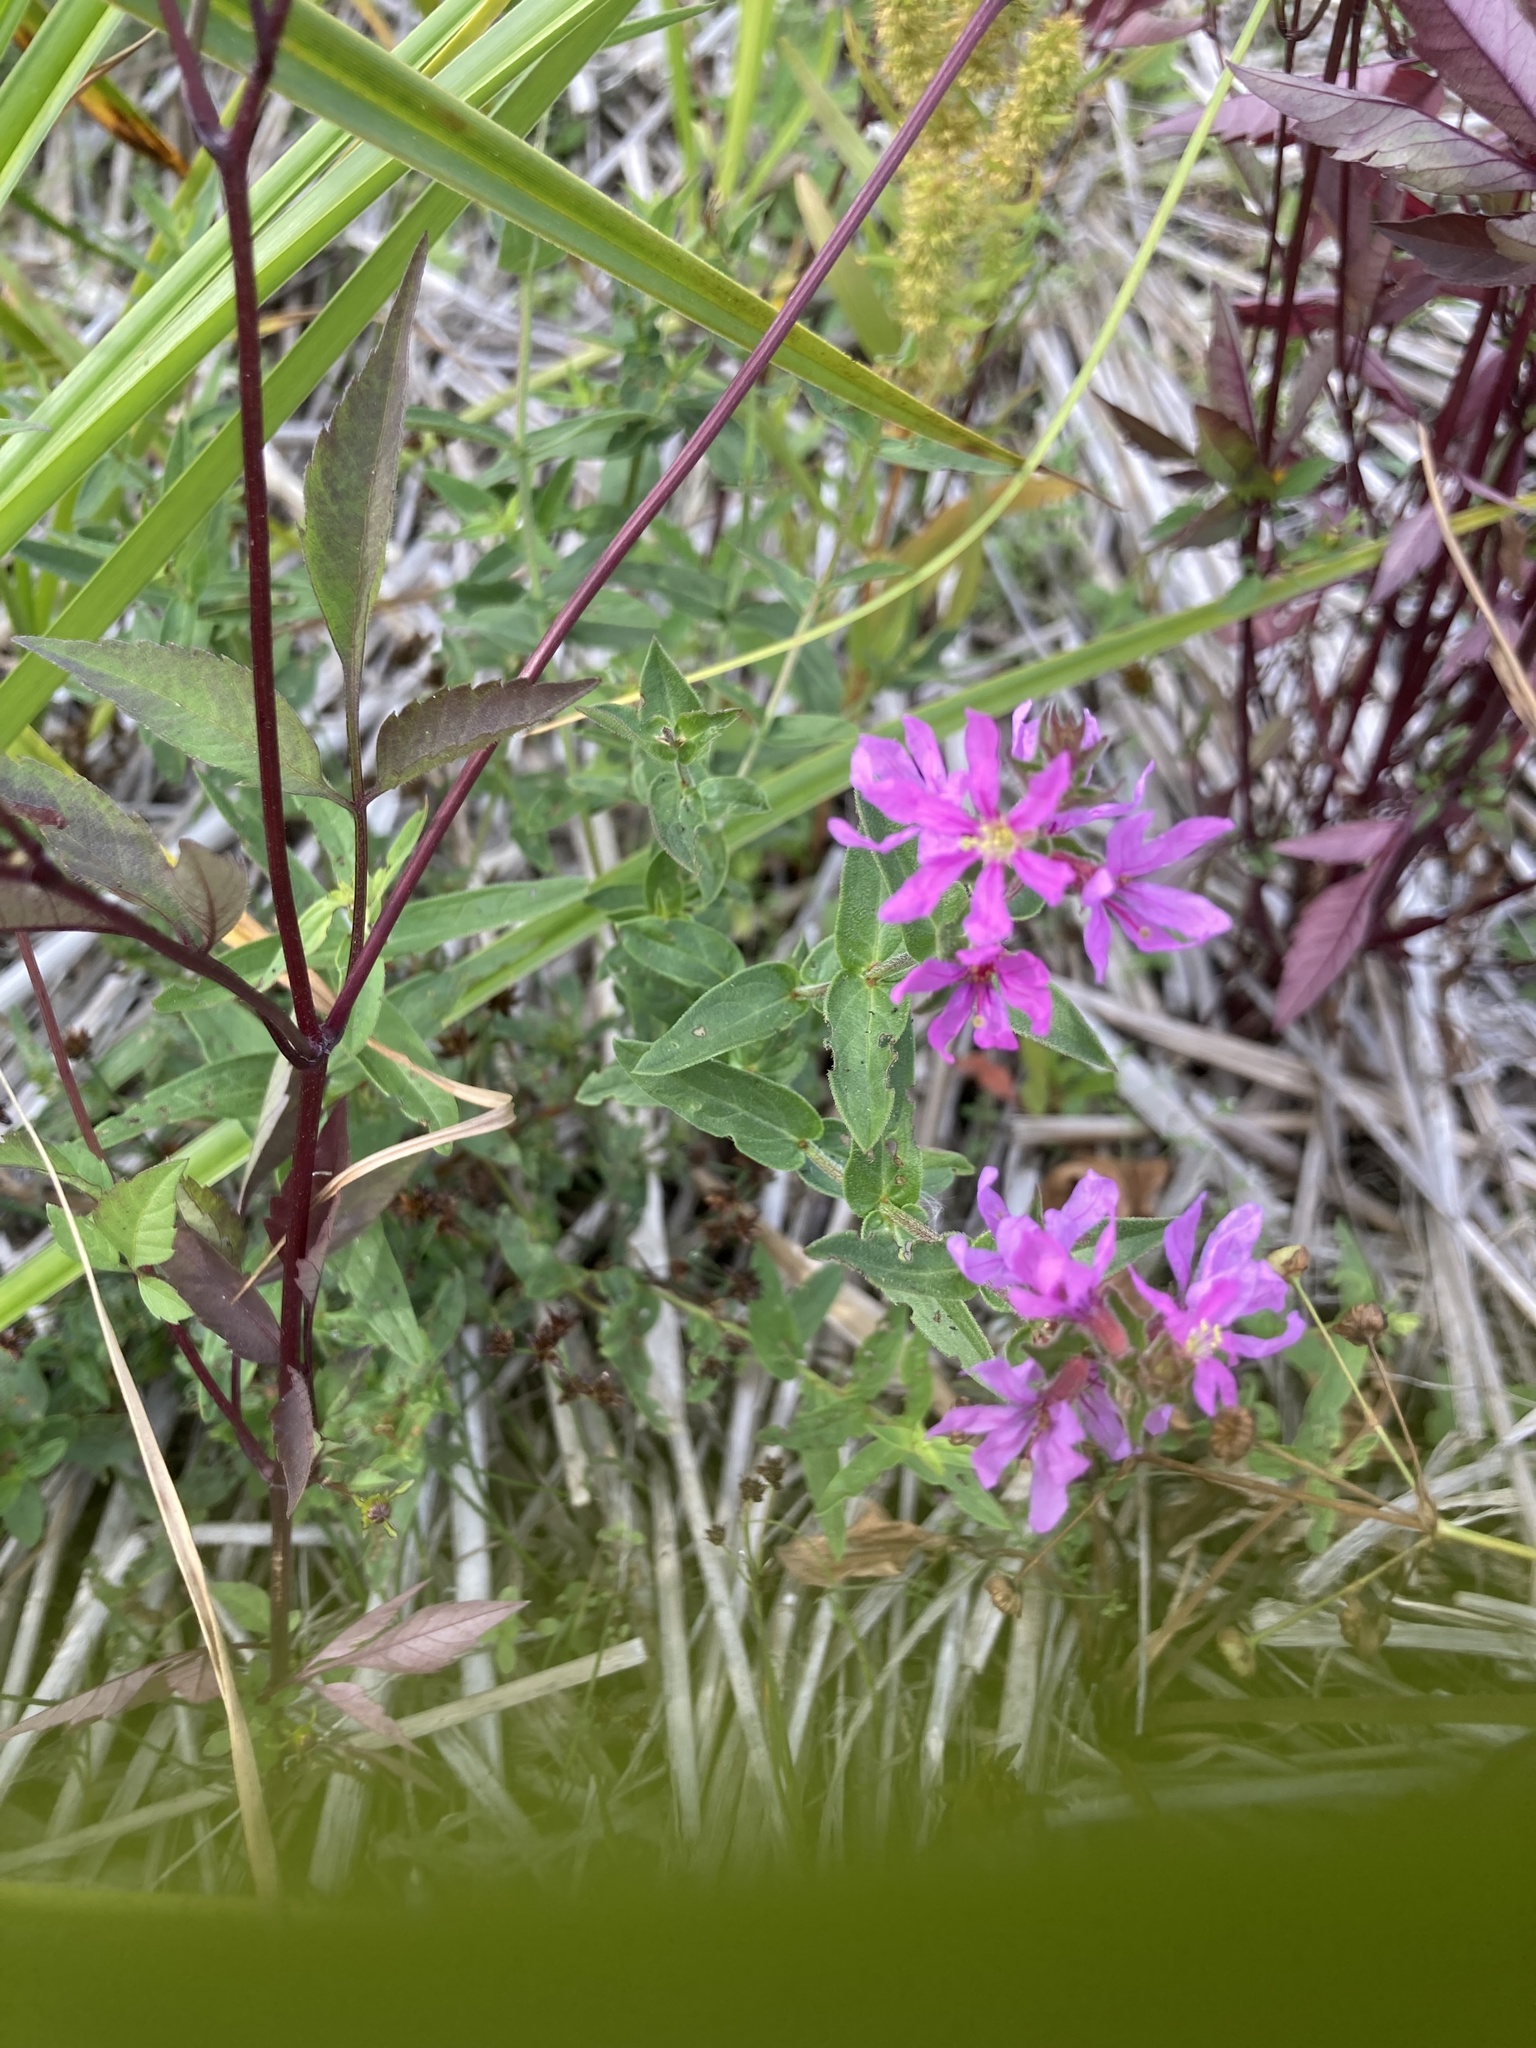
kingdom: Plantae
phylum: Tracheophyta
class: Magnoliopsida
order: Myrtales
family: Lythraceae
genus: Lythrum
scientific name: Lythrum salicaria
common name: Purple loosestrife
